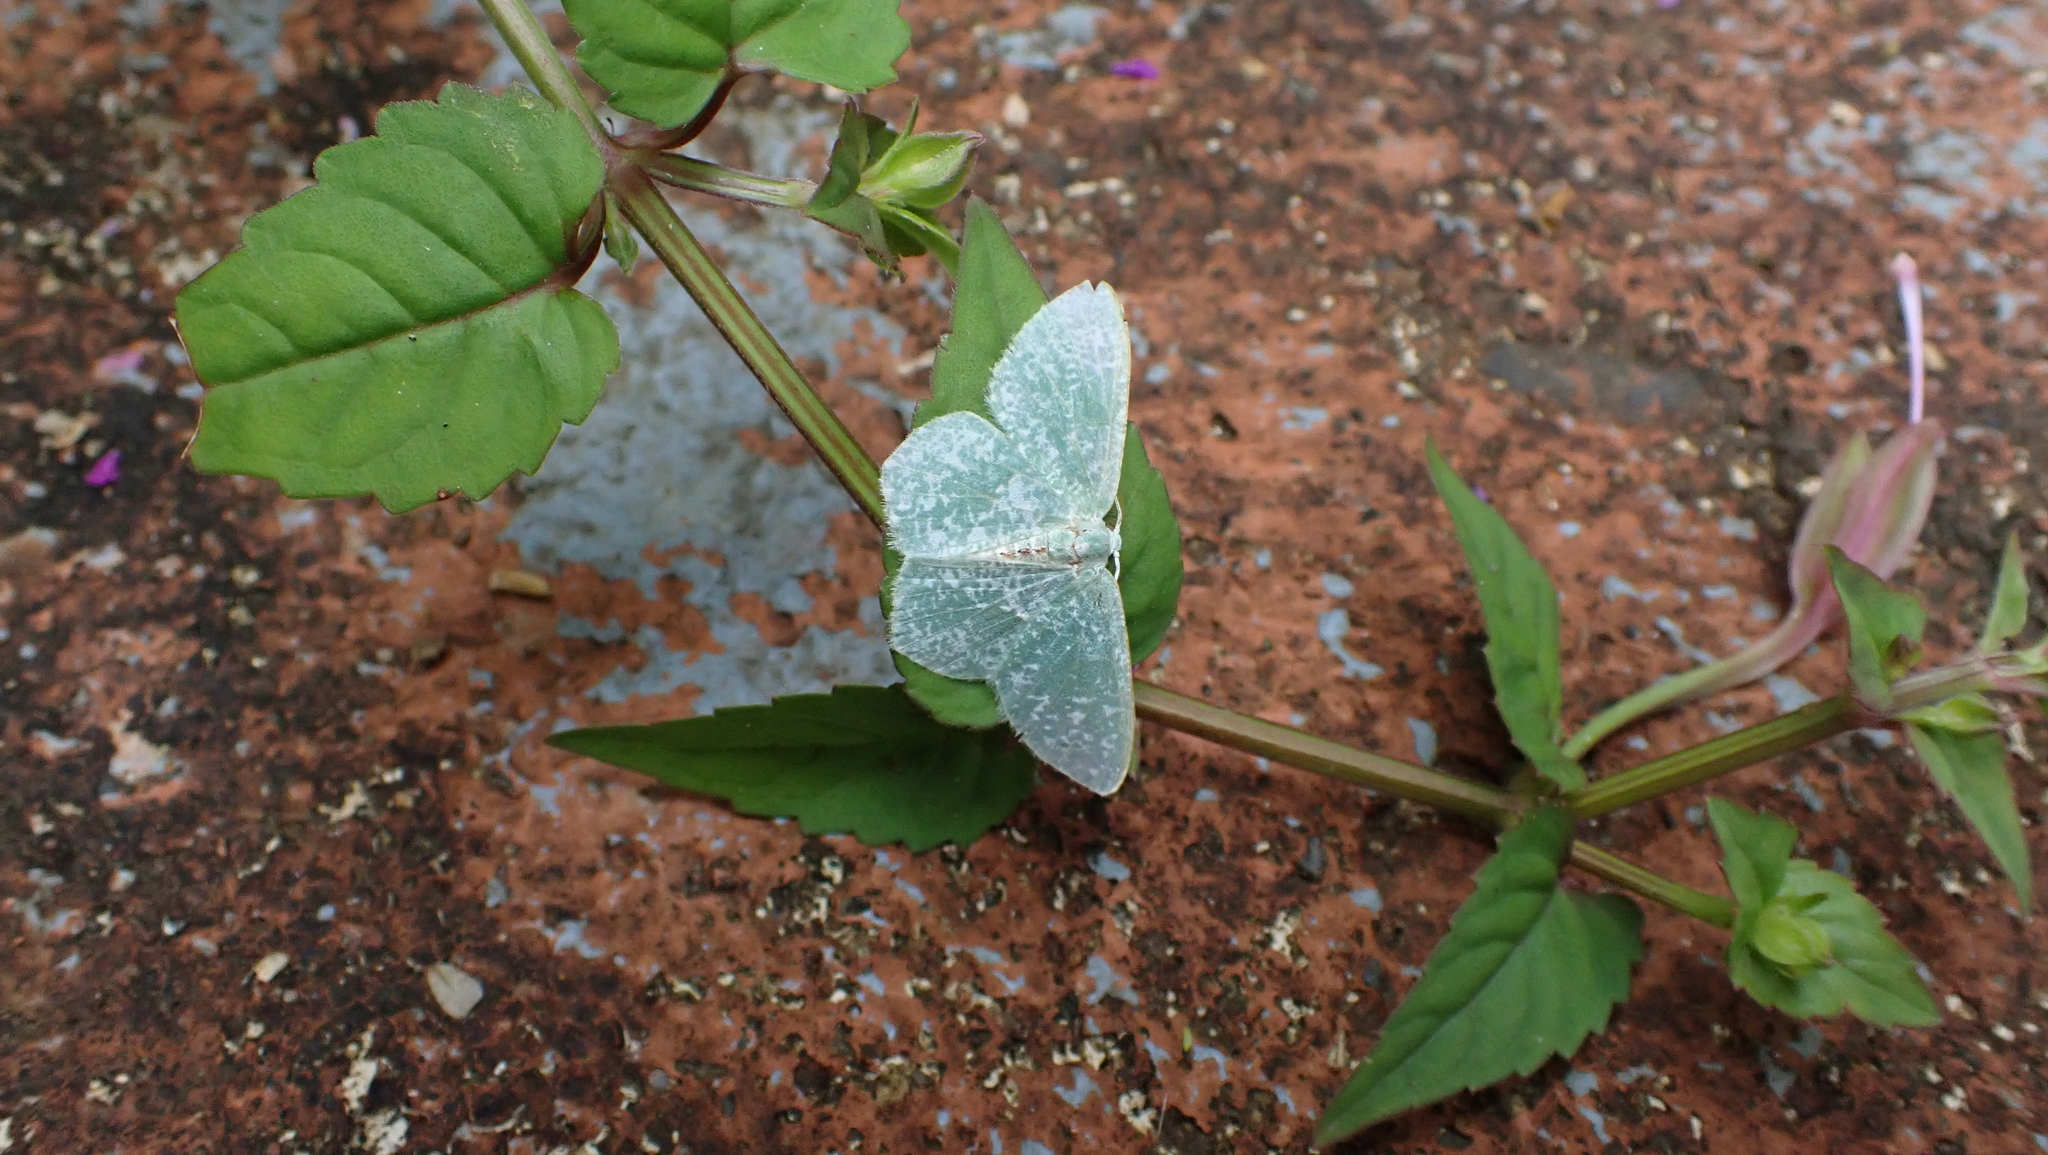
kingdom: Animalia
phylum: Arthropoda
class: Insecta
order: Lepidoptera
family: Geometridae
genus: Oospila
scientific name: Oospila stagonata
